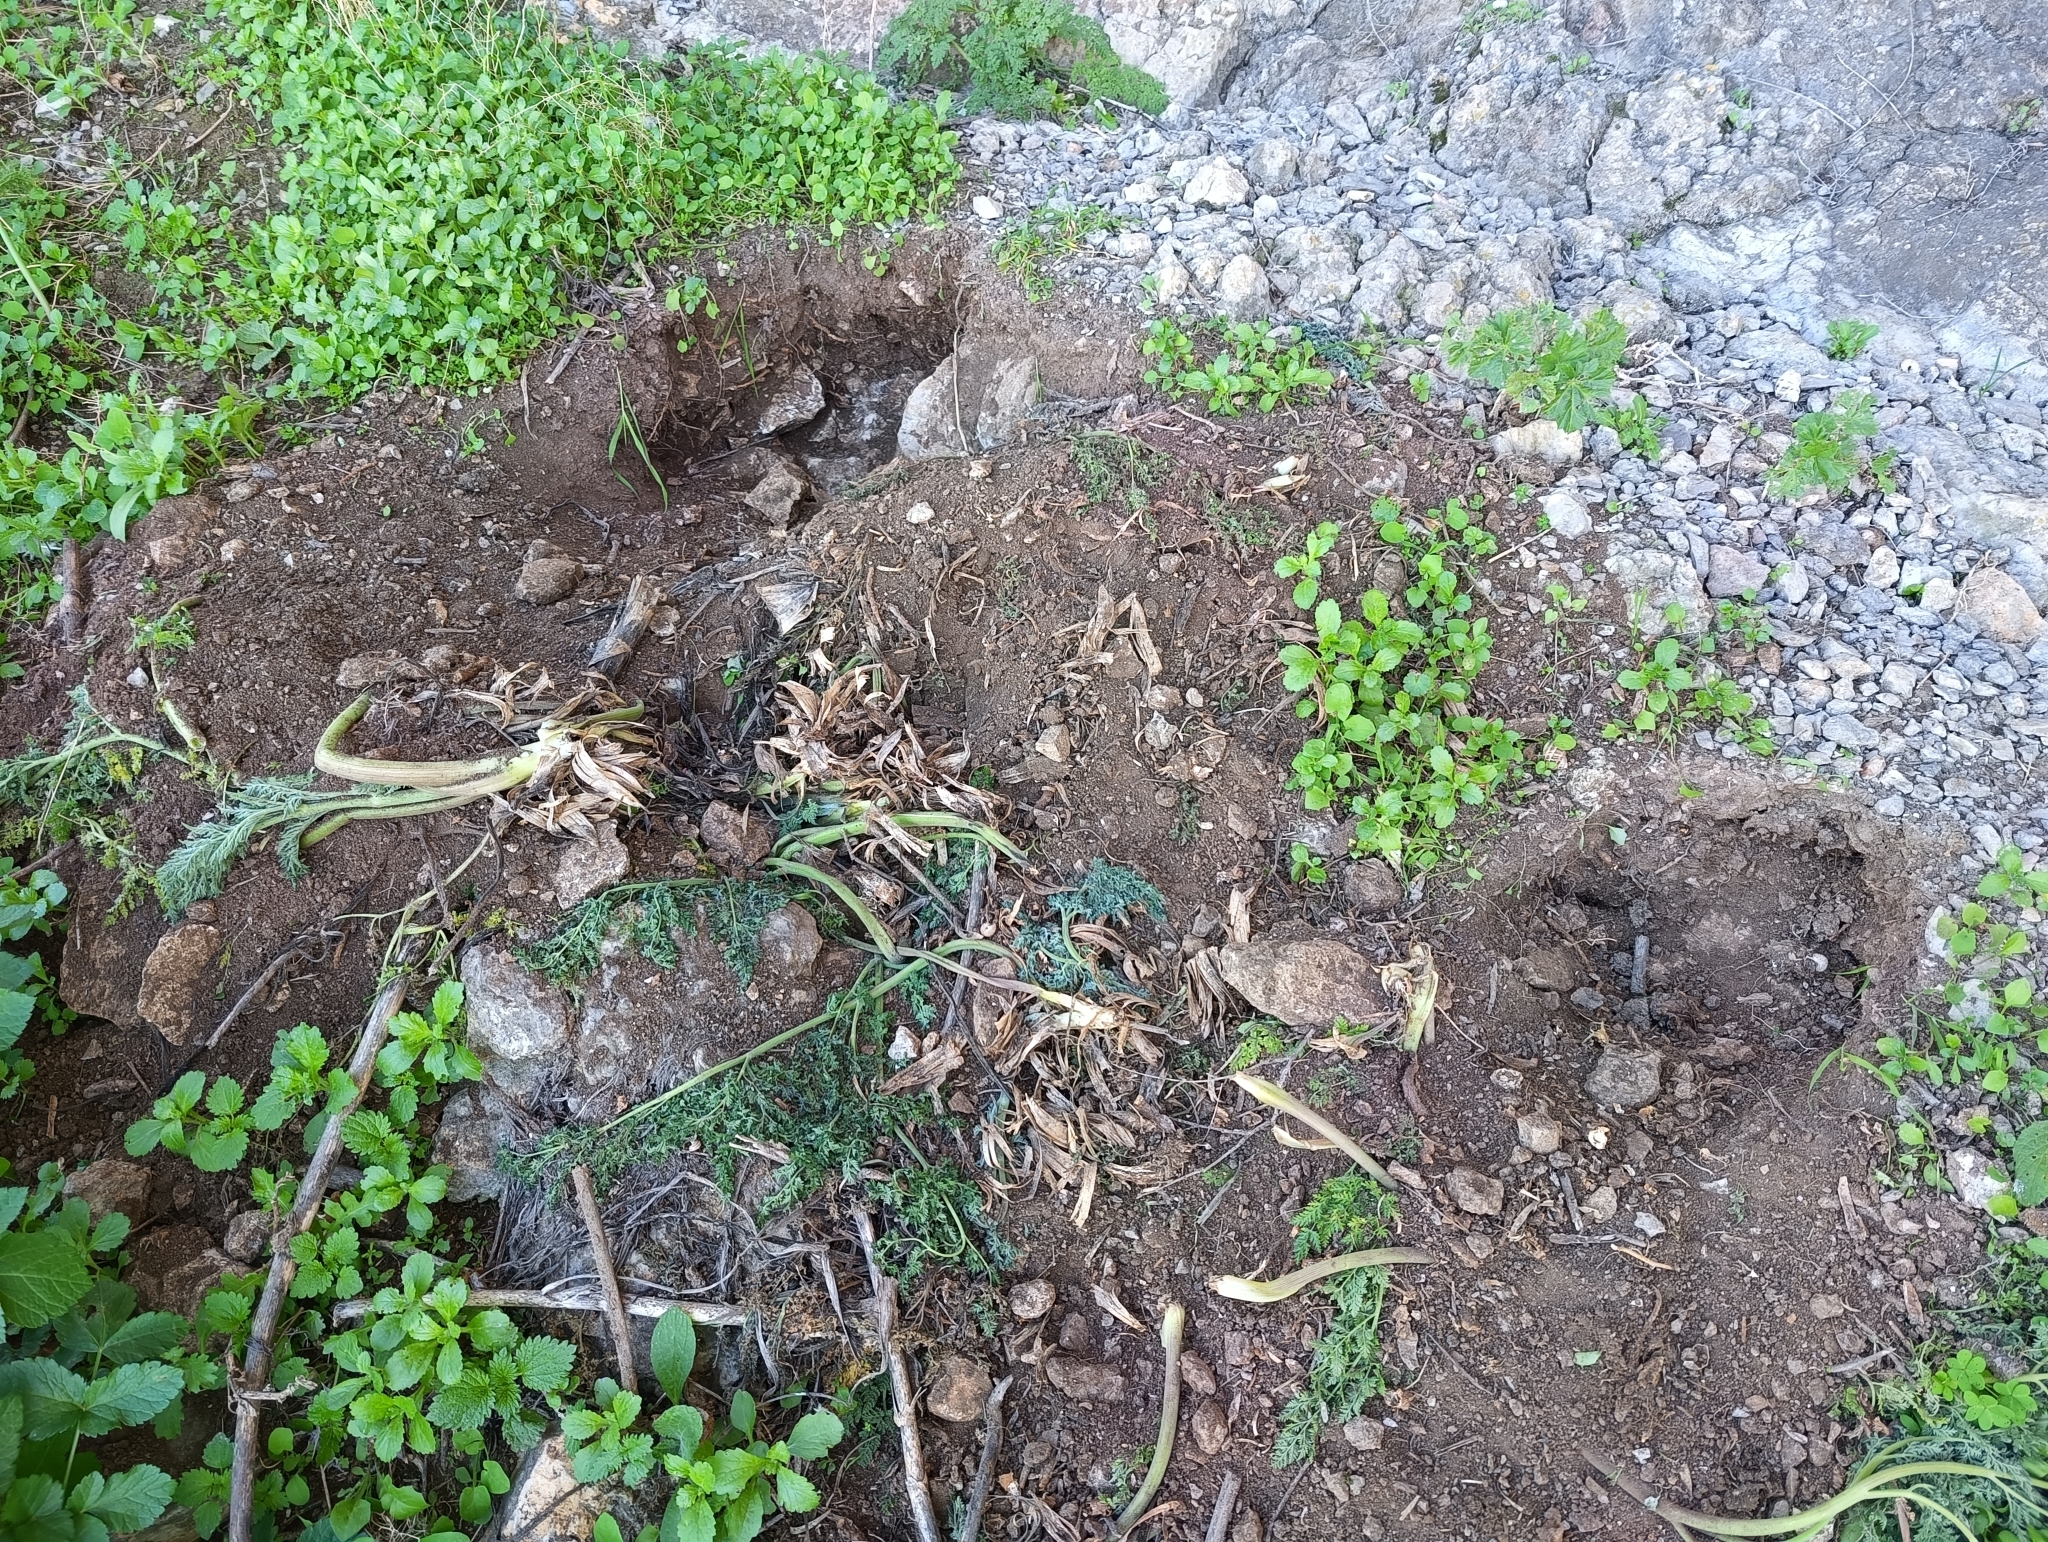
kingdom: Animalia
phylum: Chordata
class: Mammalia
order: Rodentia
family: Hystricidae
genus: Hystrix
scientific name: Hystrix cristata
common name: Crested porcupine
